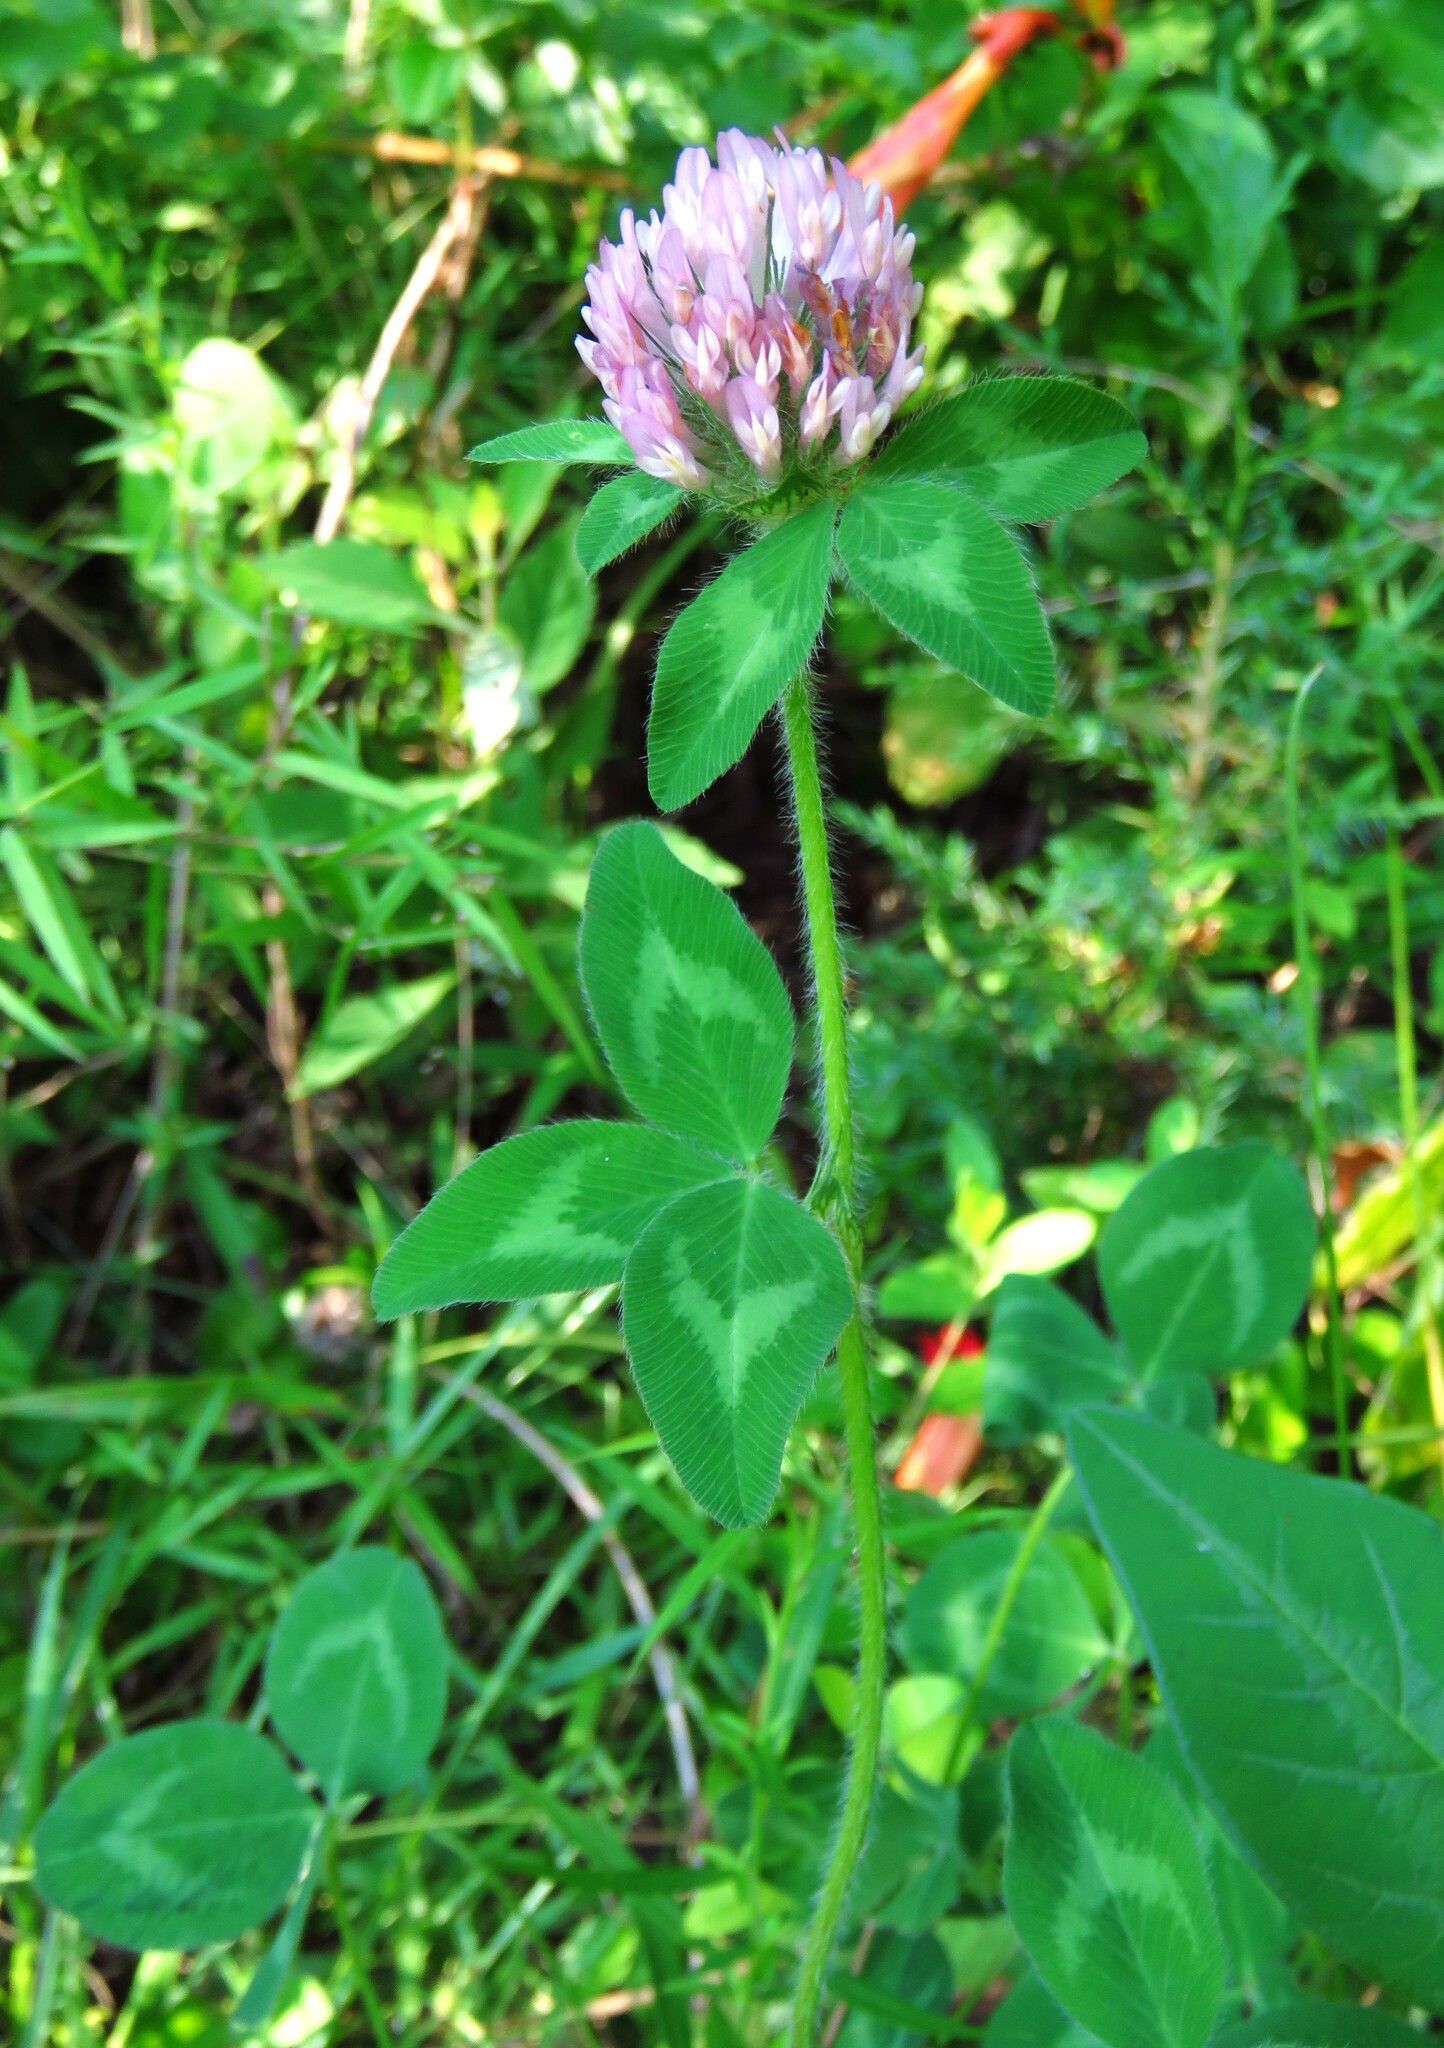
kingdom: Plantae
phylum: Tracheophyta
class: Magnoliopsida
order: Fabales
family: Fabaceae
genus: Trifolium
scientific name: Trifolium pratense
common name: Red clover
